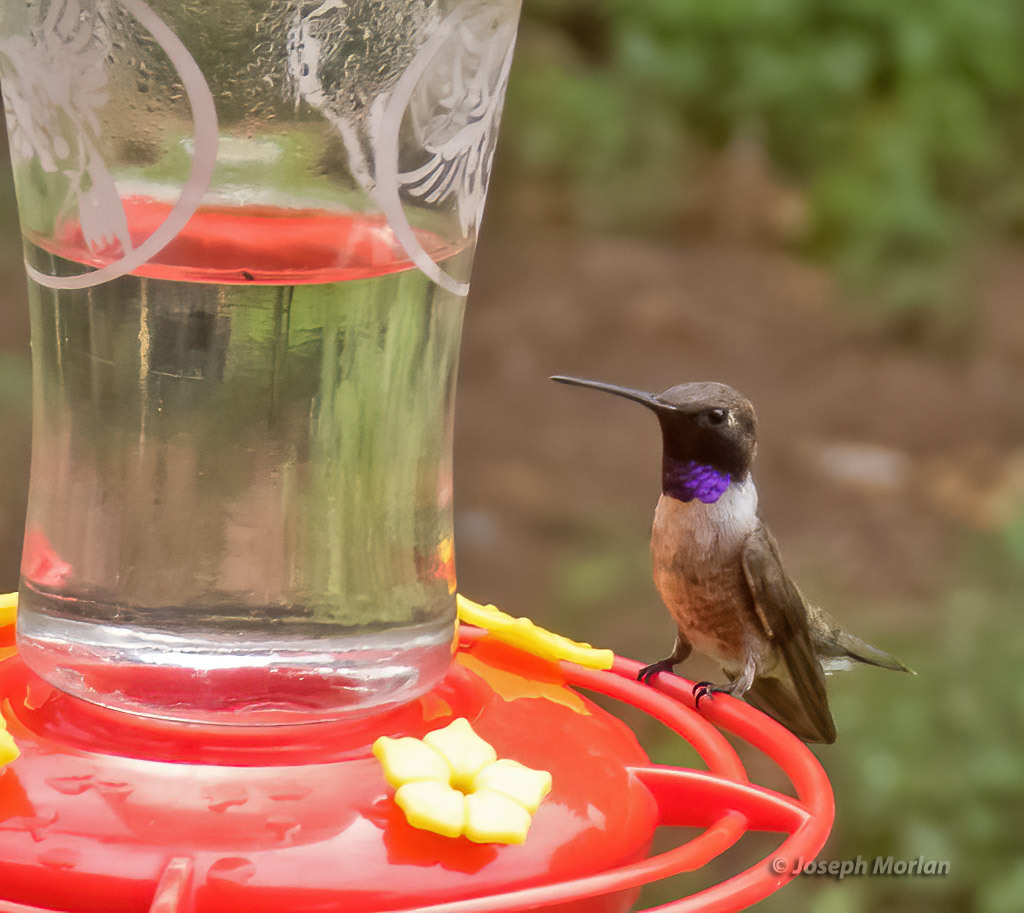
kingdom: Animalia
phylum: Chordata
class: Aves
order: Apodiformes
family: Trochilidae
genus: Archilochus
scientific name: Archilochus alexandri
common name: Black-chinned hummingbird
